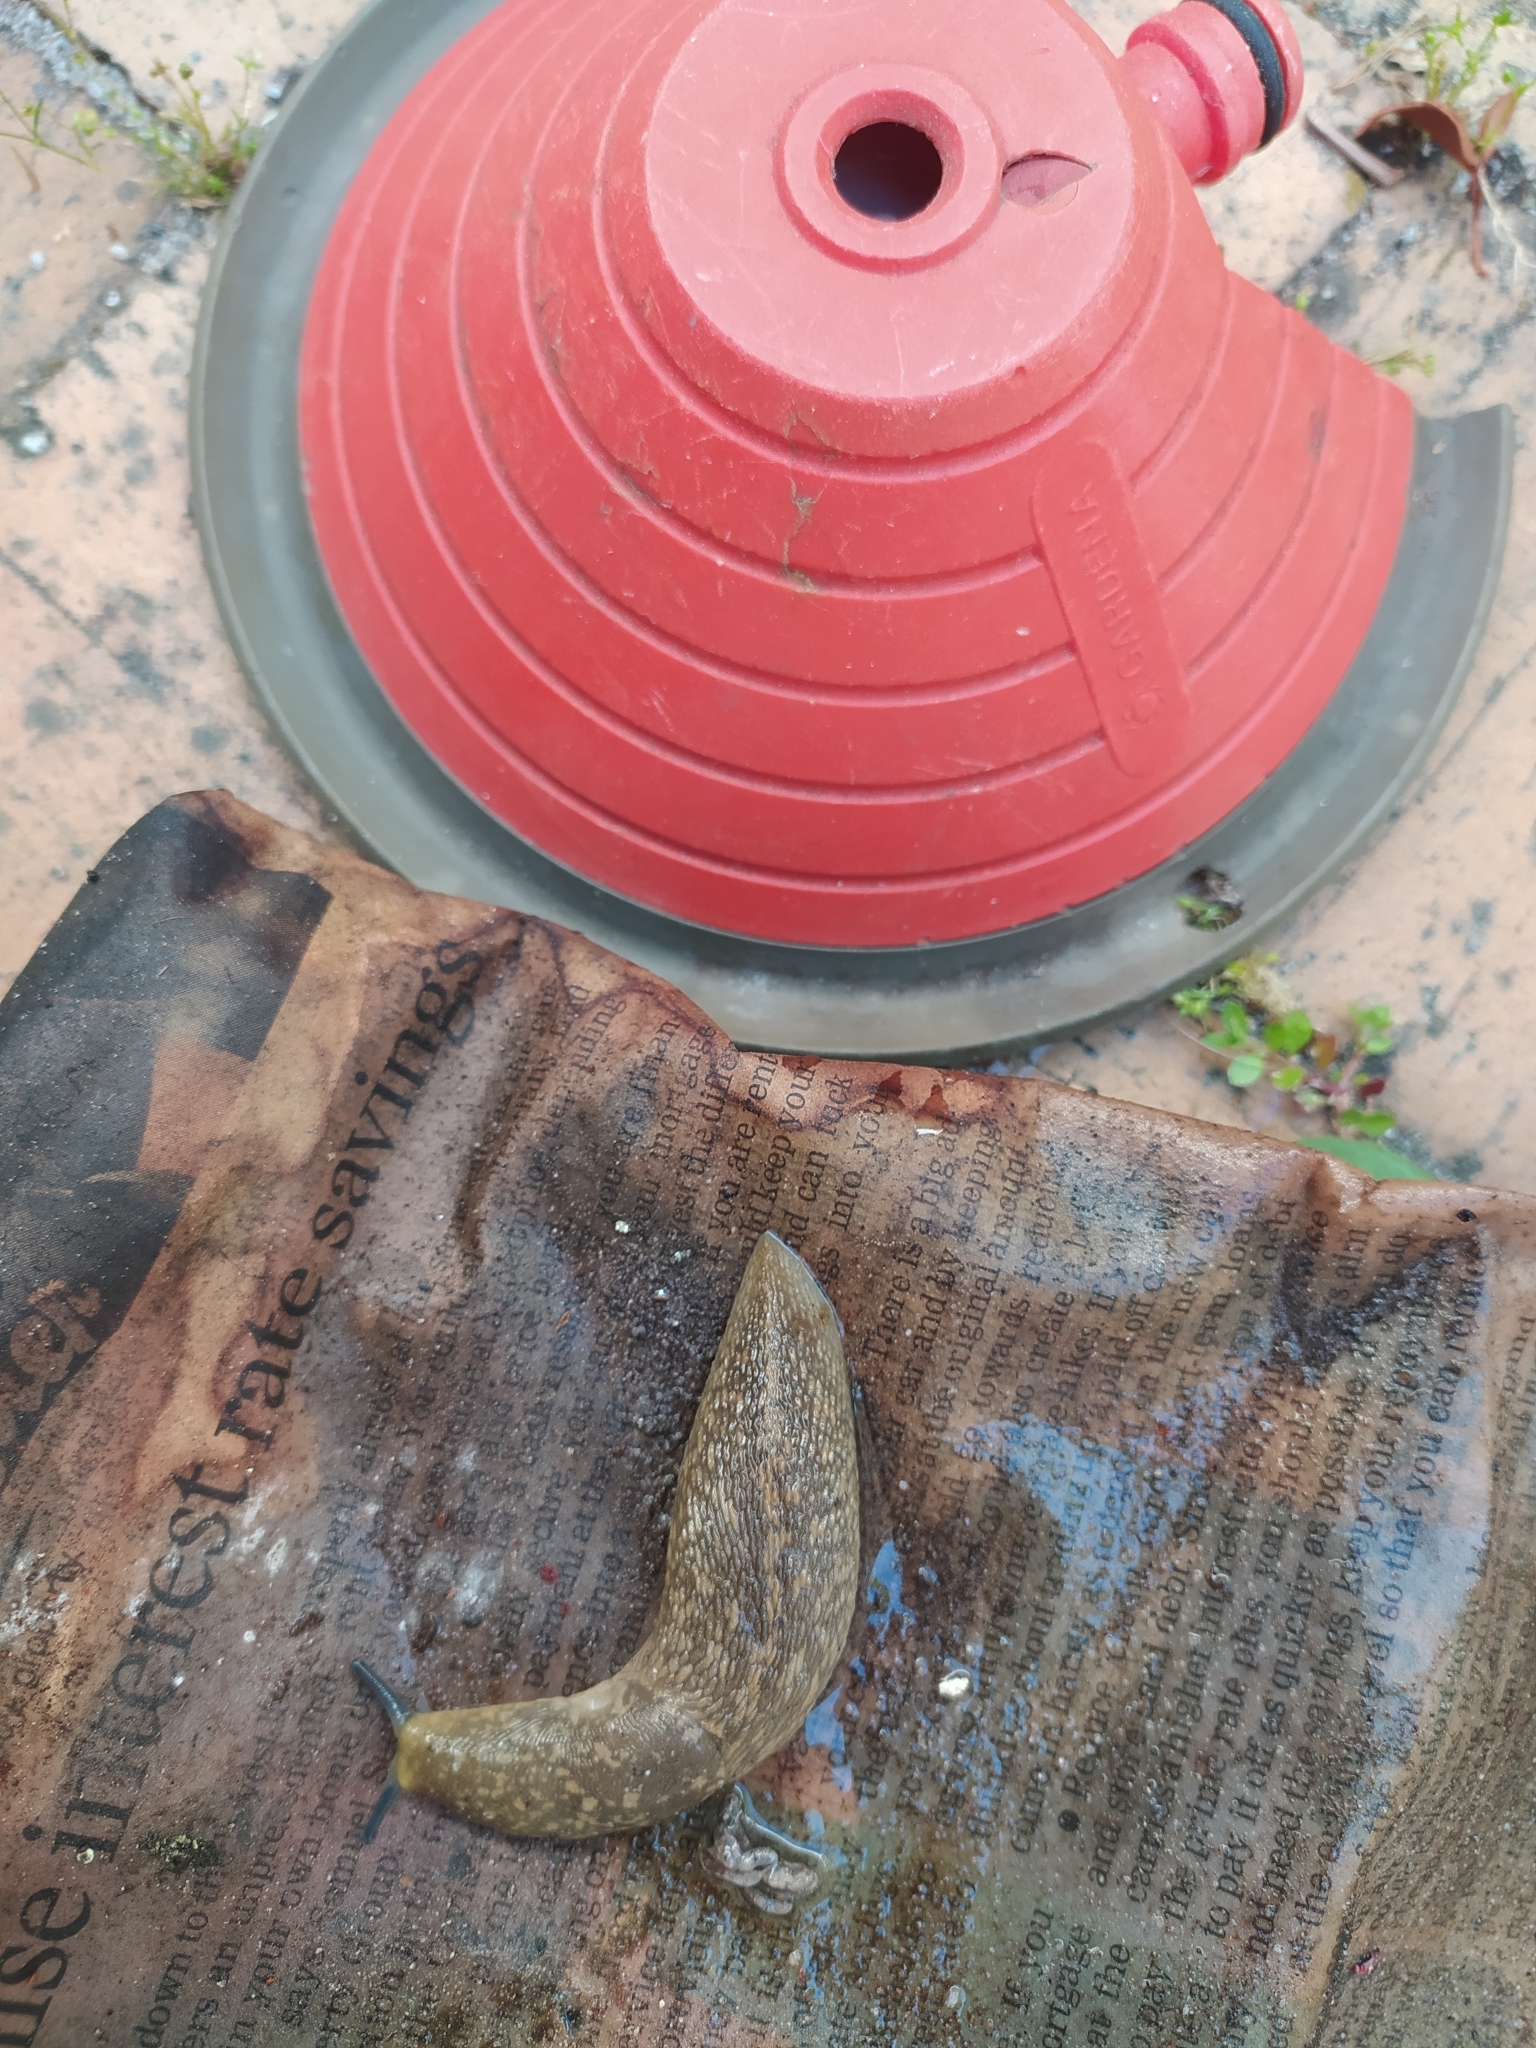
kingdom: Animalia
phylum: Mollusca
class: Gastropoda
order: Stylommatophora
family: Limacidae
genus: Limacus
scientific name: Limacus flavus
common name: Yellow gardenslug
